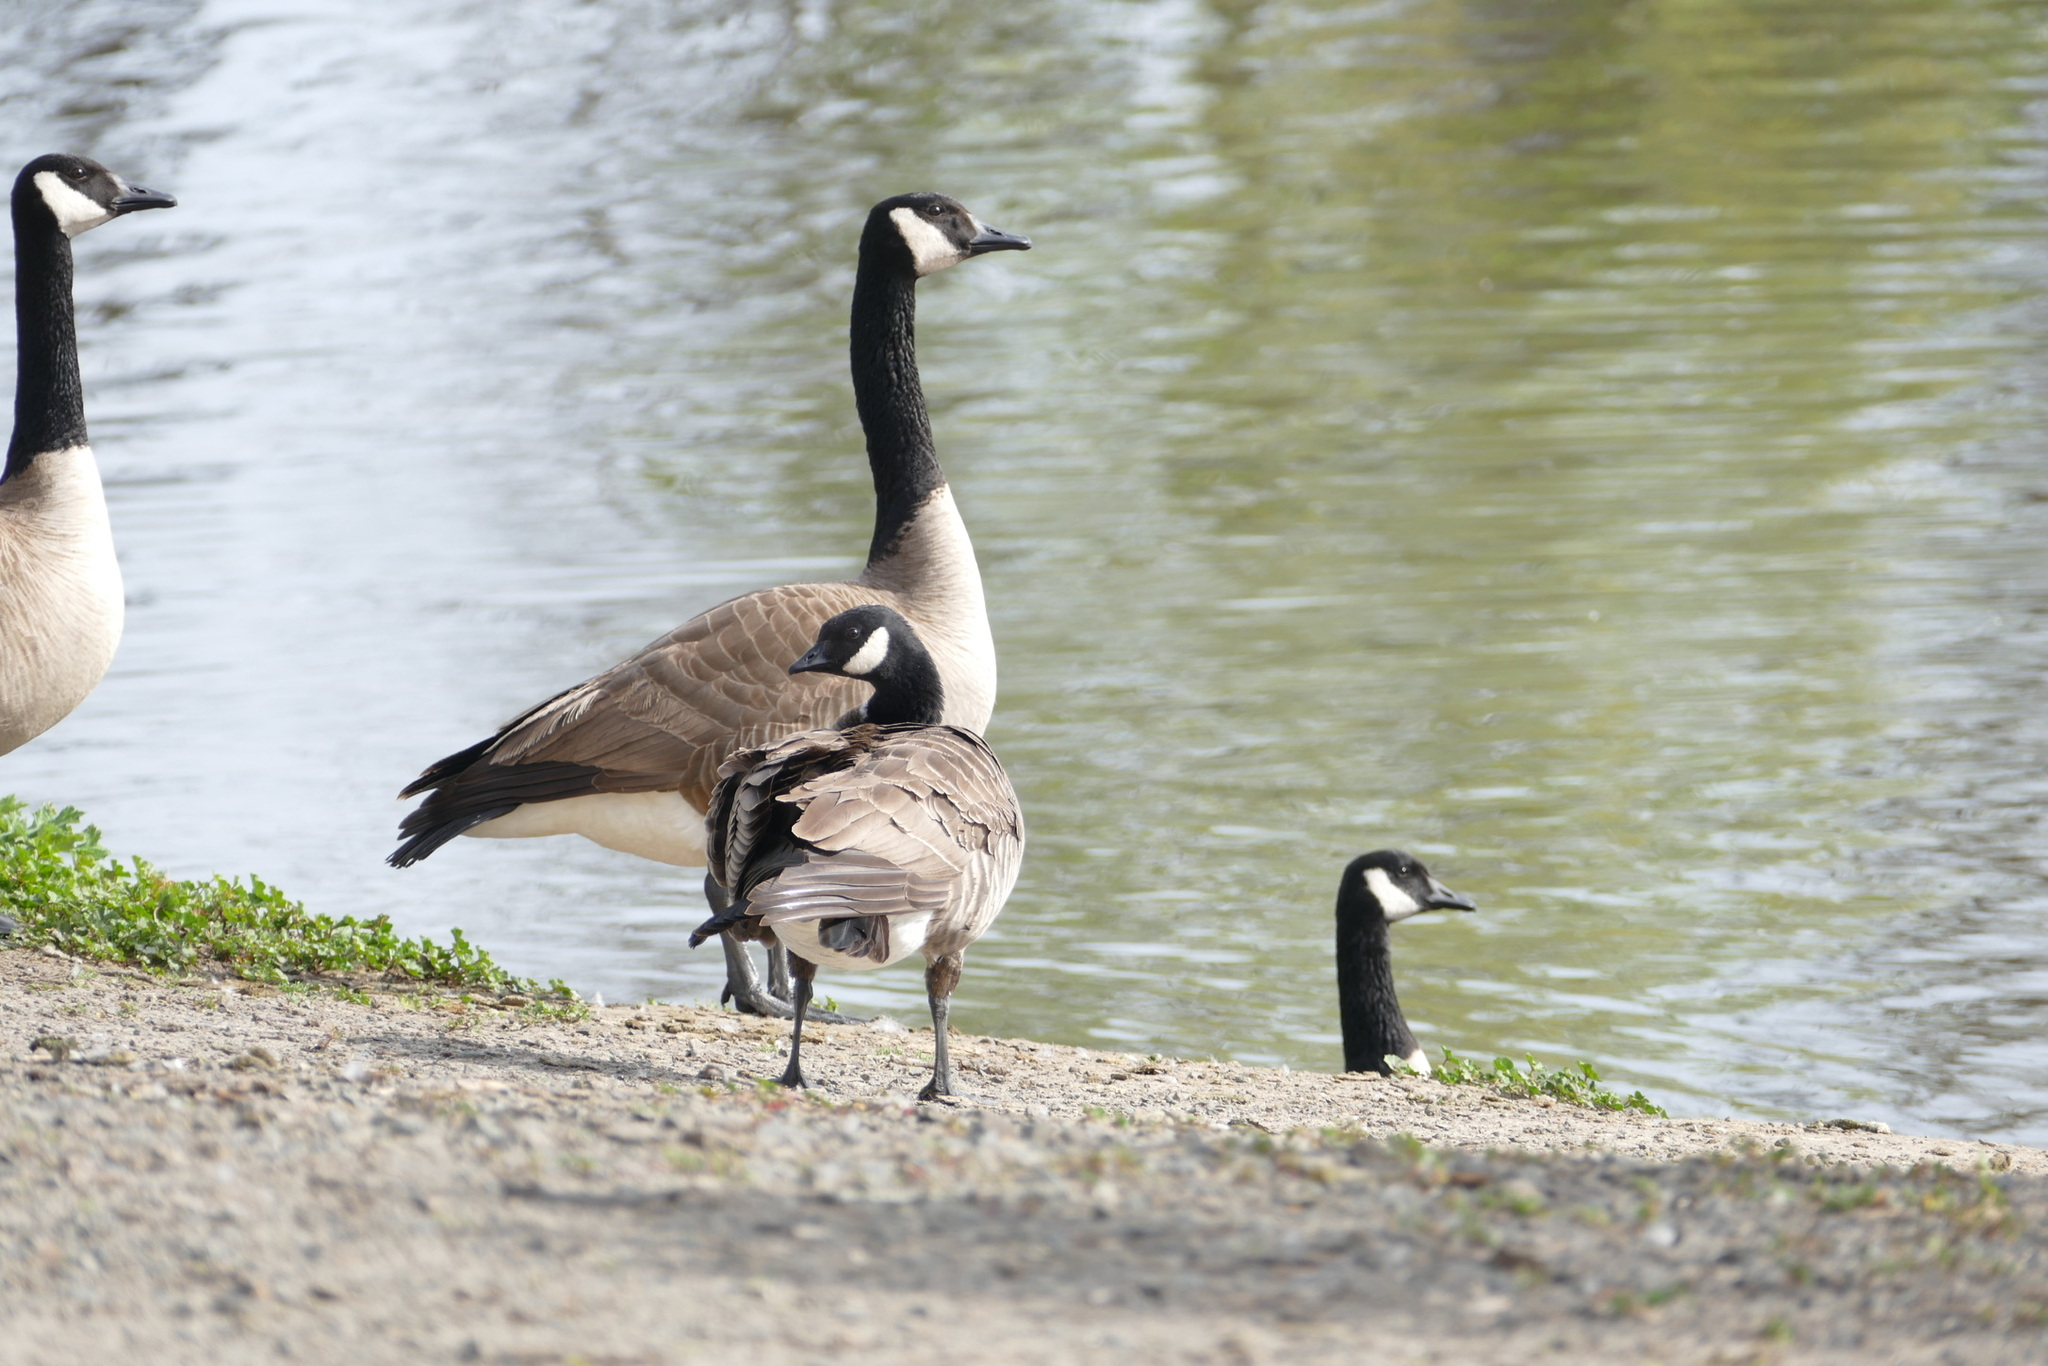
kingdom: Animalia
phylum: Chordata
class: Aves
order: Anseriformes
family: Anatidae
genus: Branta
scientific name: Branta canadensis
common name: Canada goose
